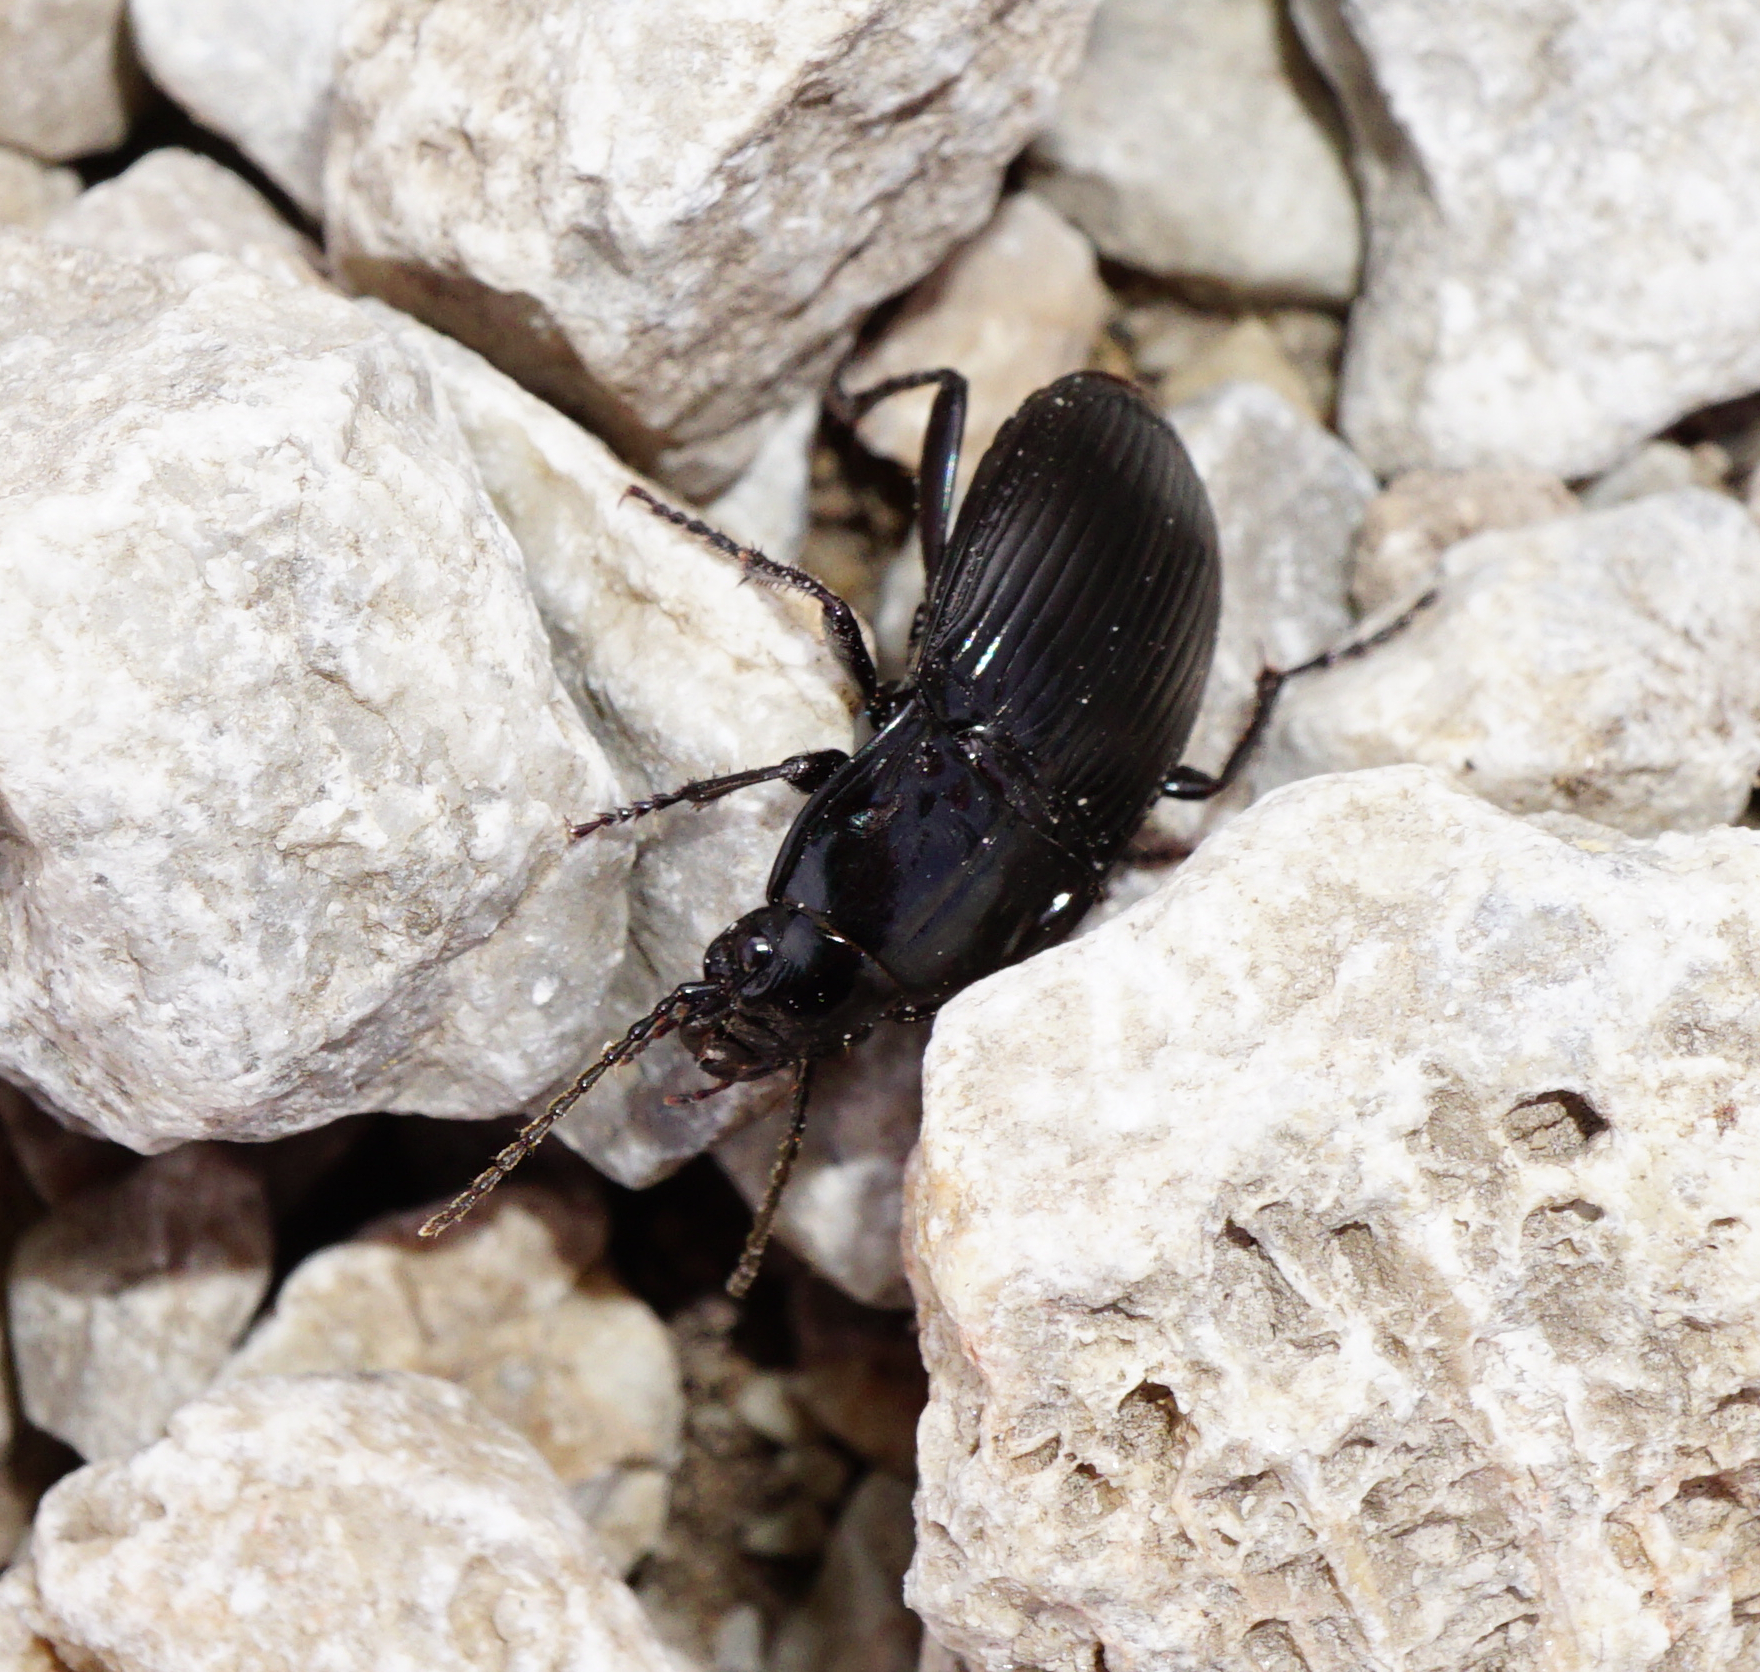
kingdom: Animalia
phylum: Arthropoda
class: Insecta
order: Coleoptera
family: Carabidae
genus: Abax
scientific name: Abax ovalis
